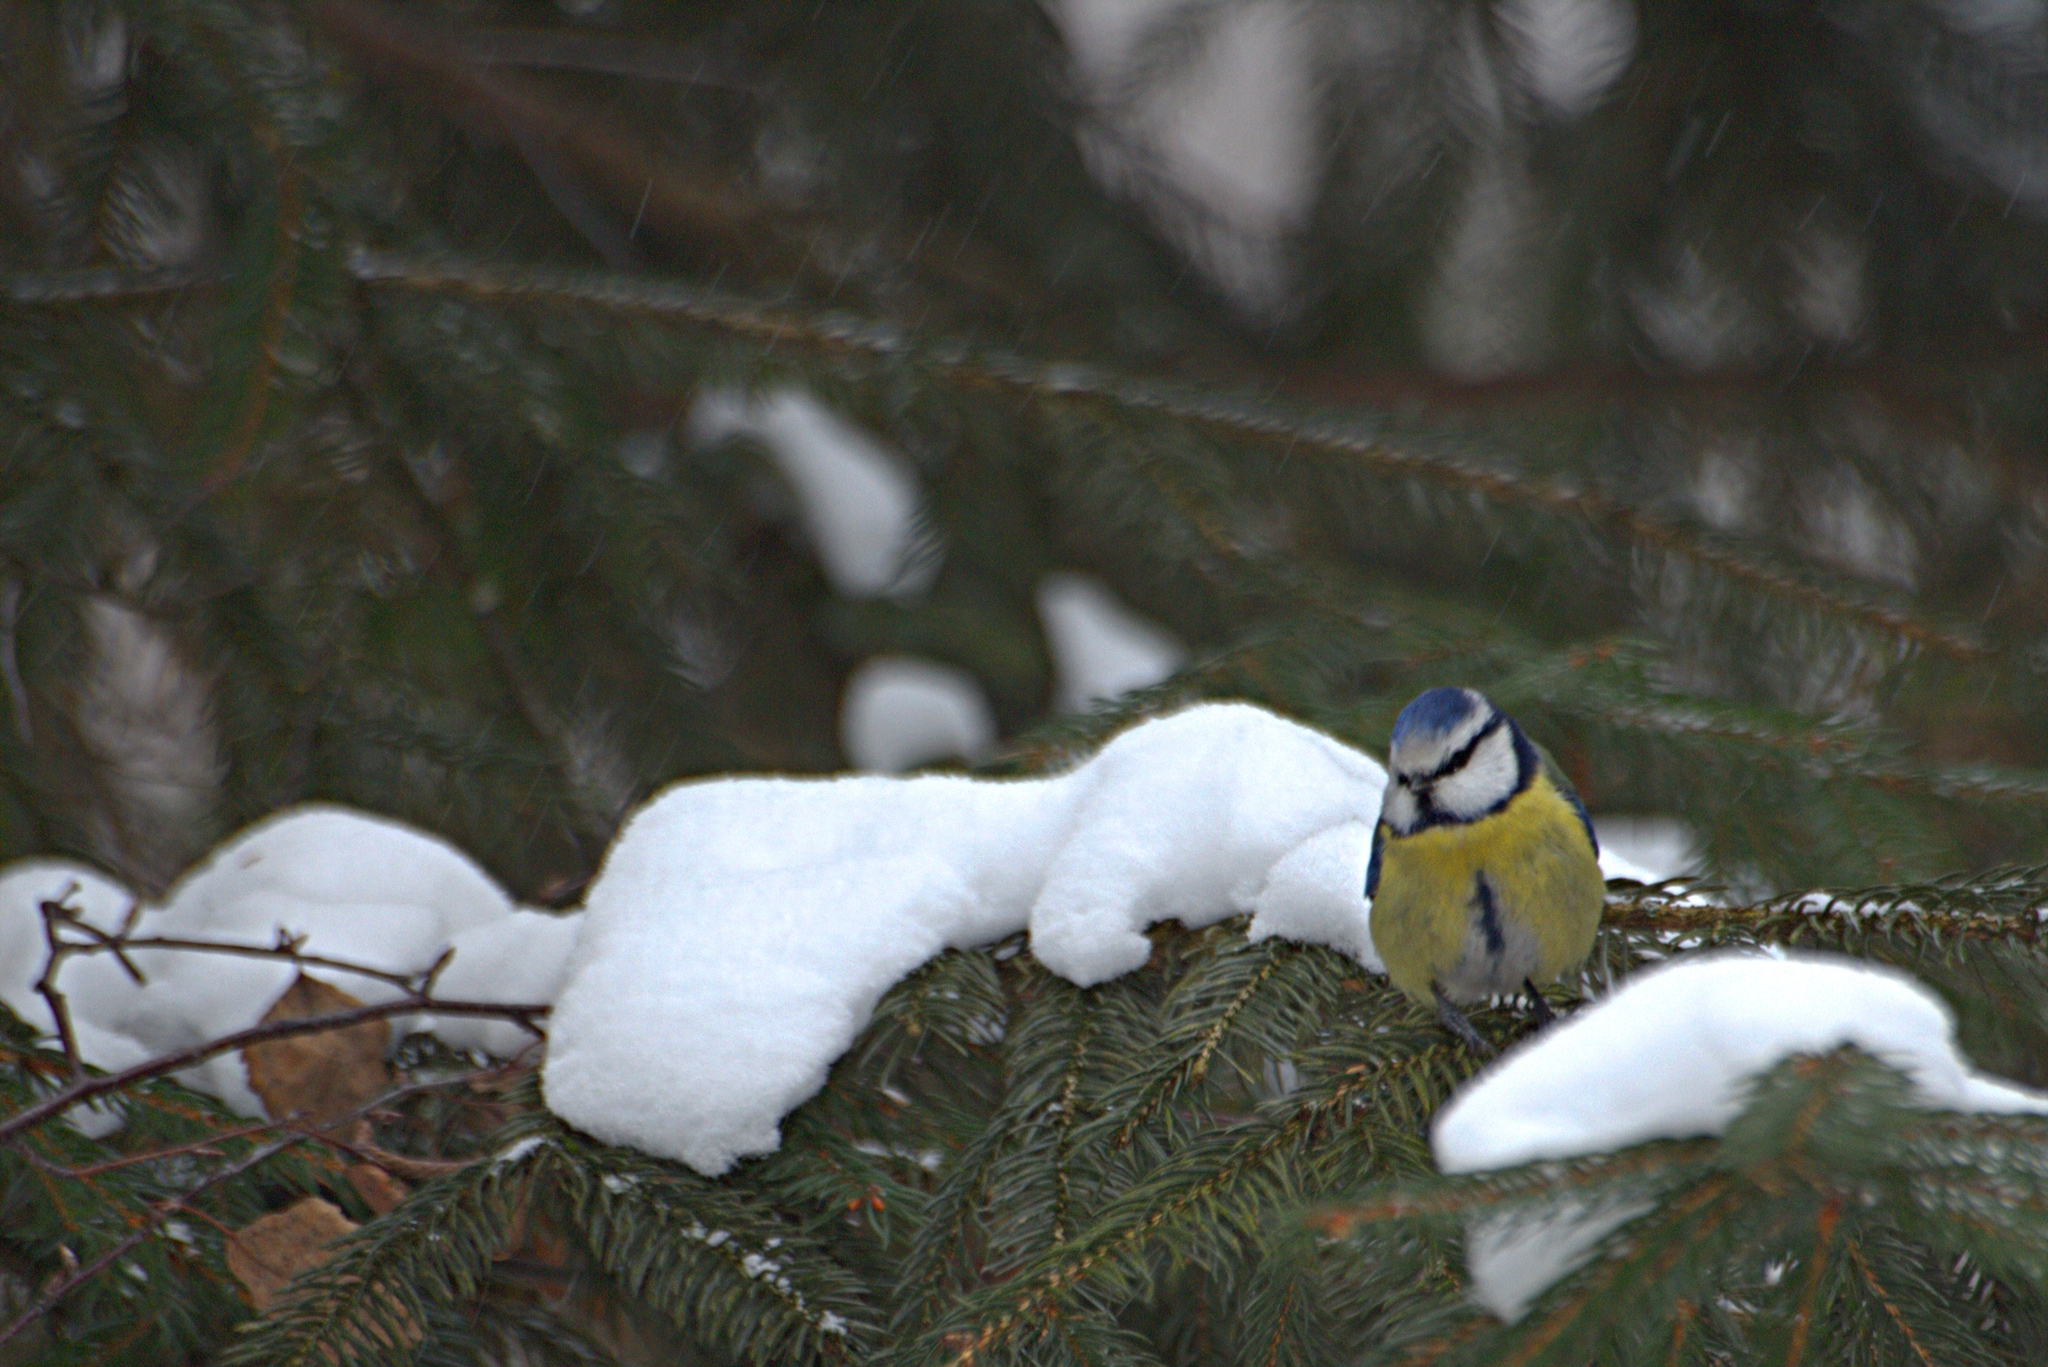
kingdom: Animalia
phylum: Chordata
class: Aves
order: Passeriformes
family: Paridae
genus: Cyanistes
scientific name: Cyanistes caeruleus
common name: Eurasian blue tit
